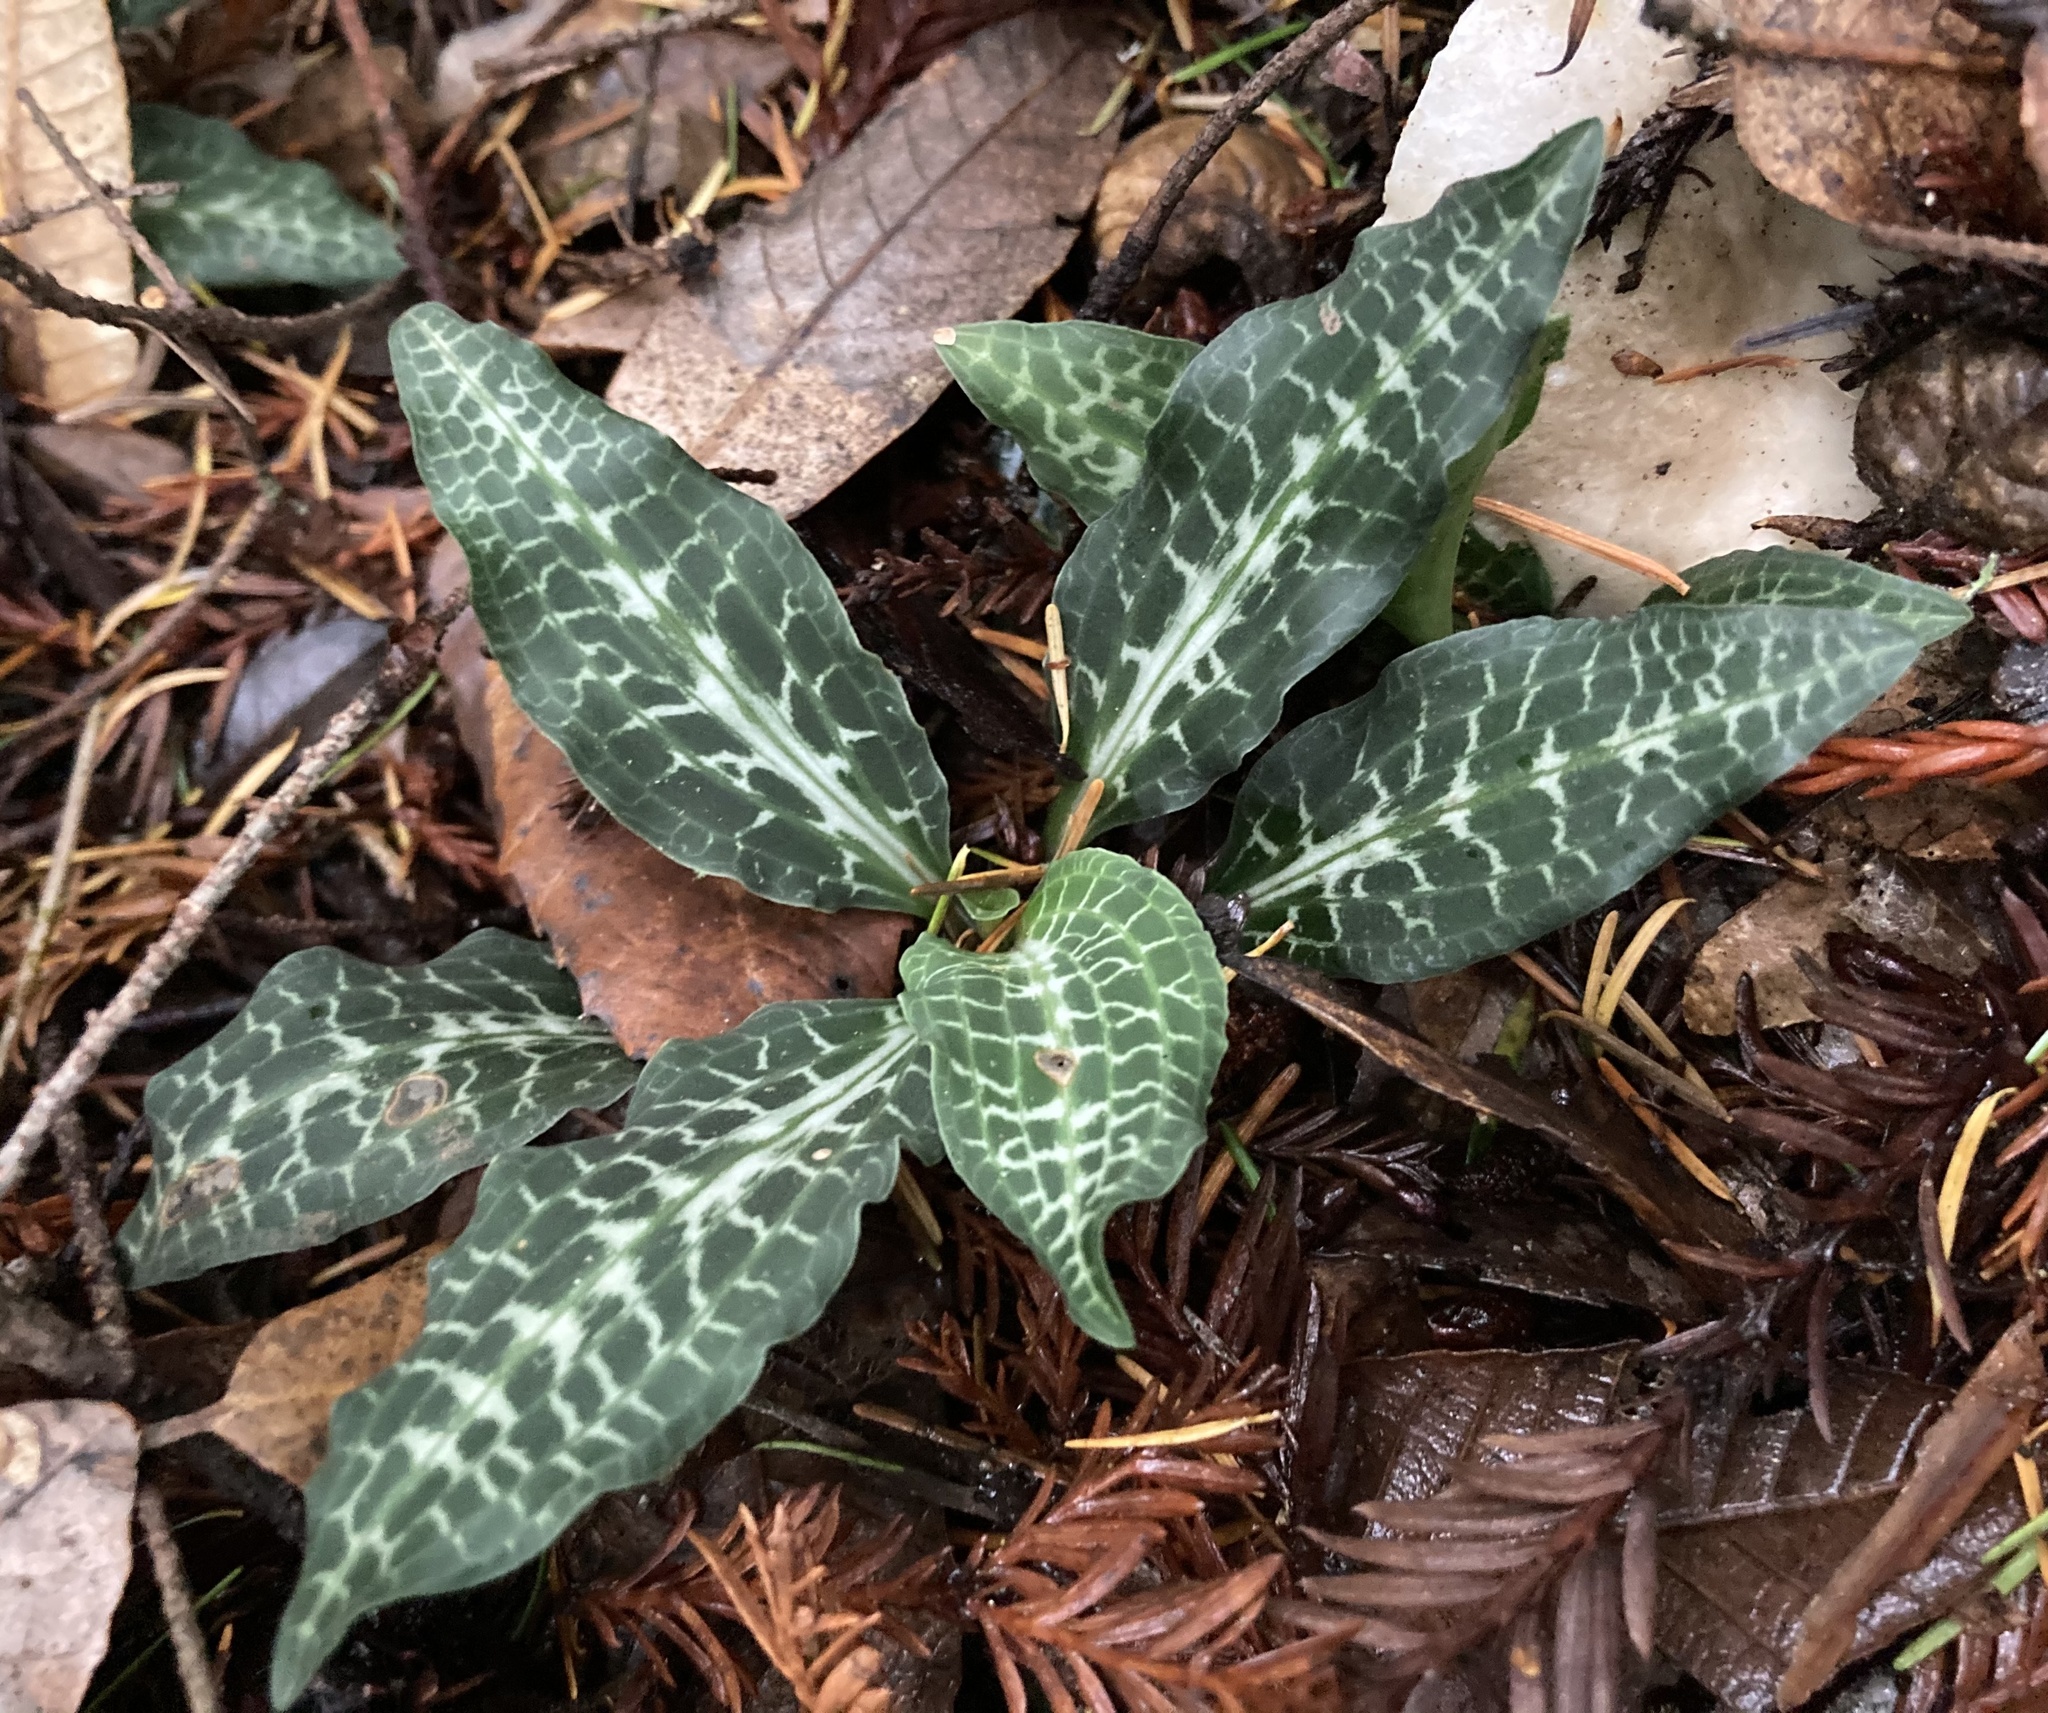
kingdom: Plantae
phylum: Tracheophyta
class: Liliopsida
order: Asparagales
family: Orchidaceae
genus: Goodyera
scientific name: Goodyera oblongifolia
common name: Giant rattlesnake-plantain
